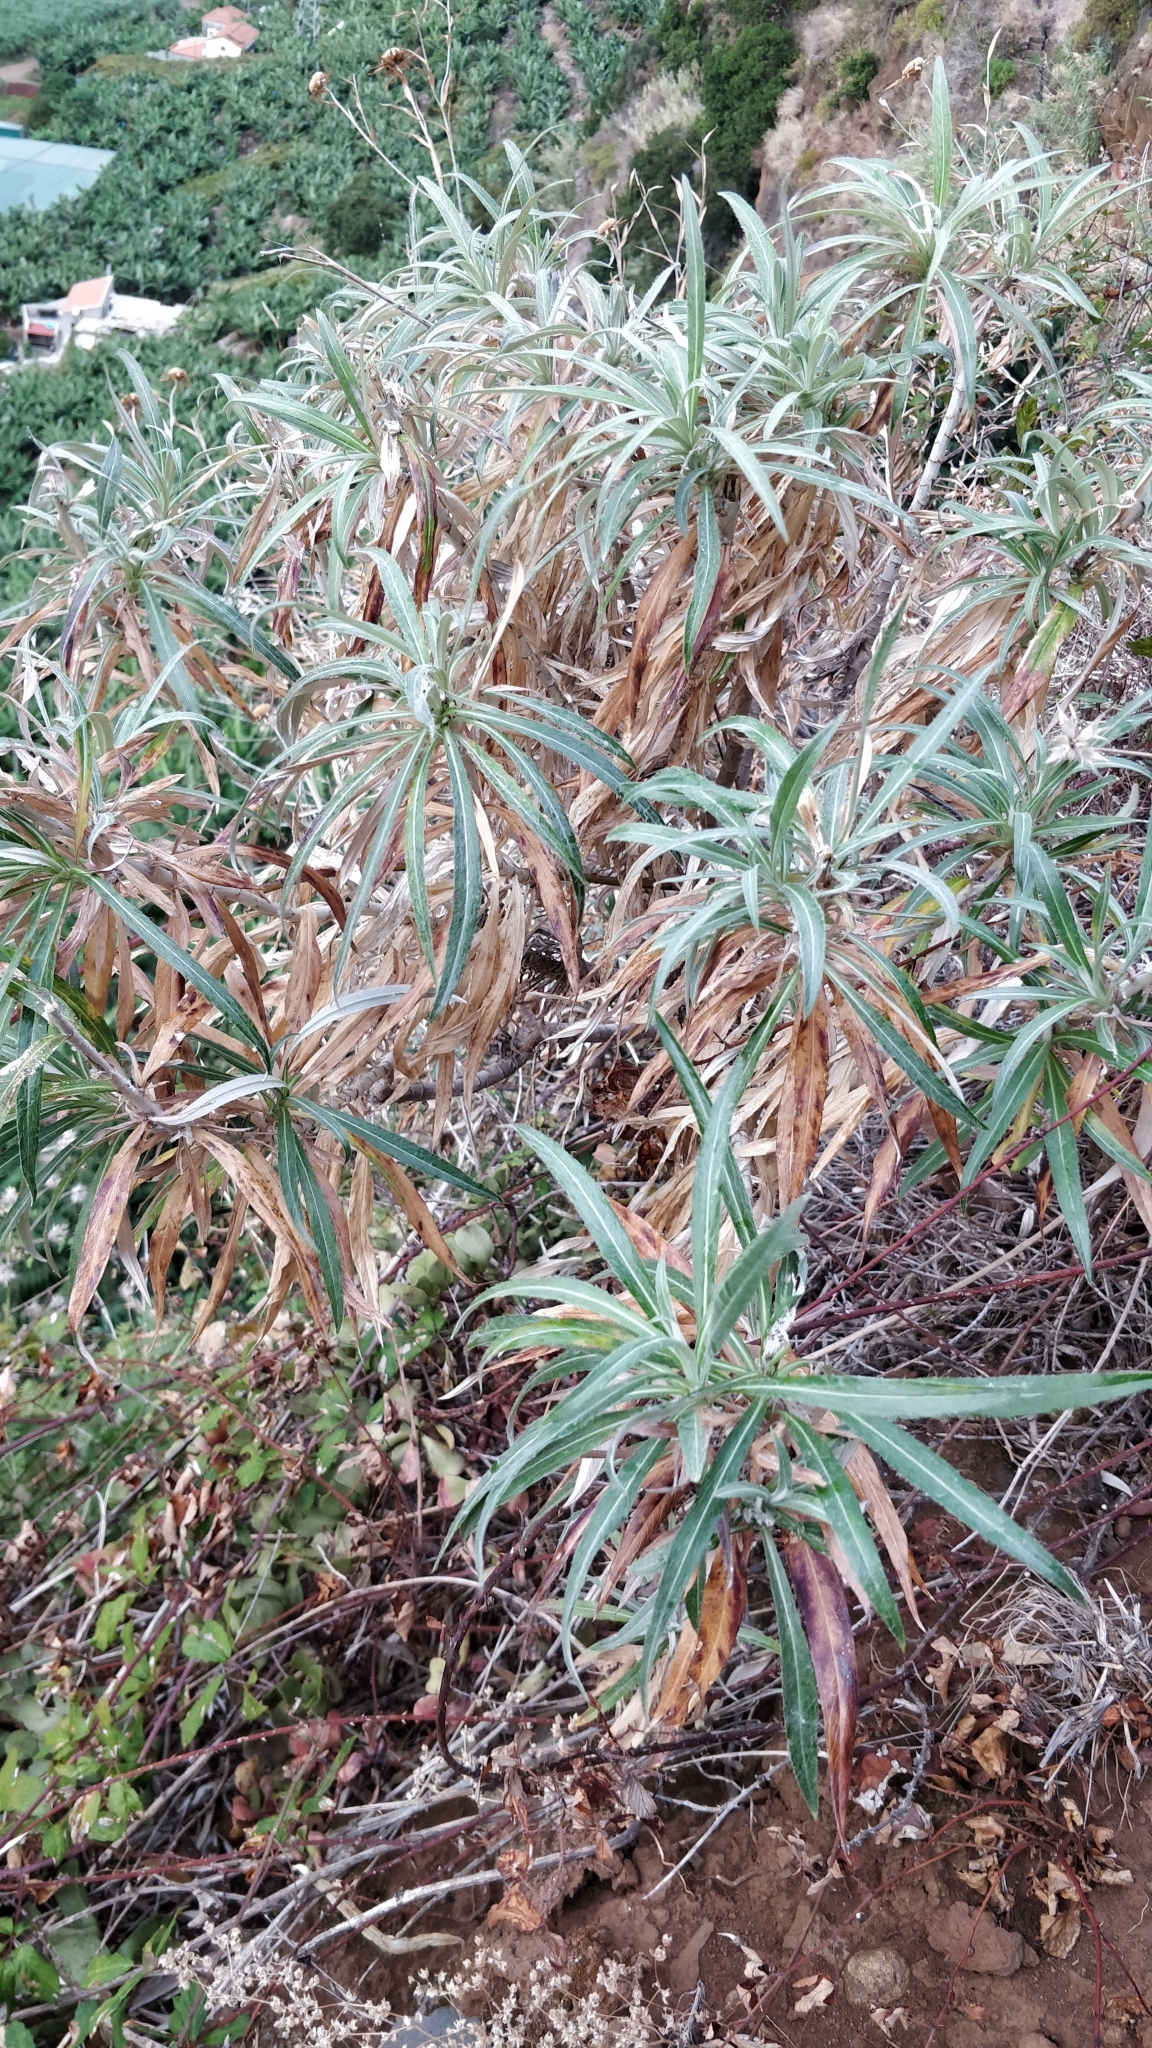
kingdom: Plantae
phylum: Tracheophyta
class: Magnoliopsida
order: Asterales
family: Asteraceae
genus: Carlina
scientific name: Carlina salicifolia
